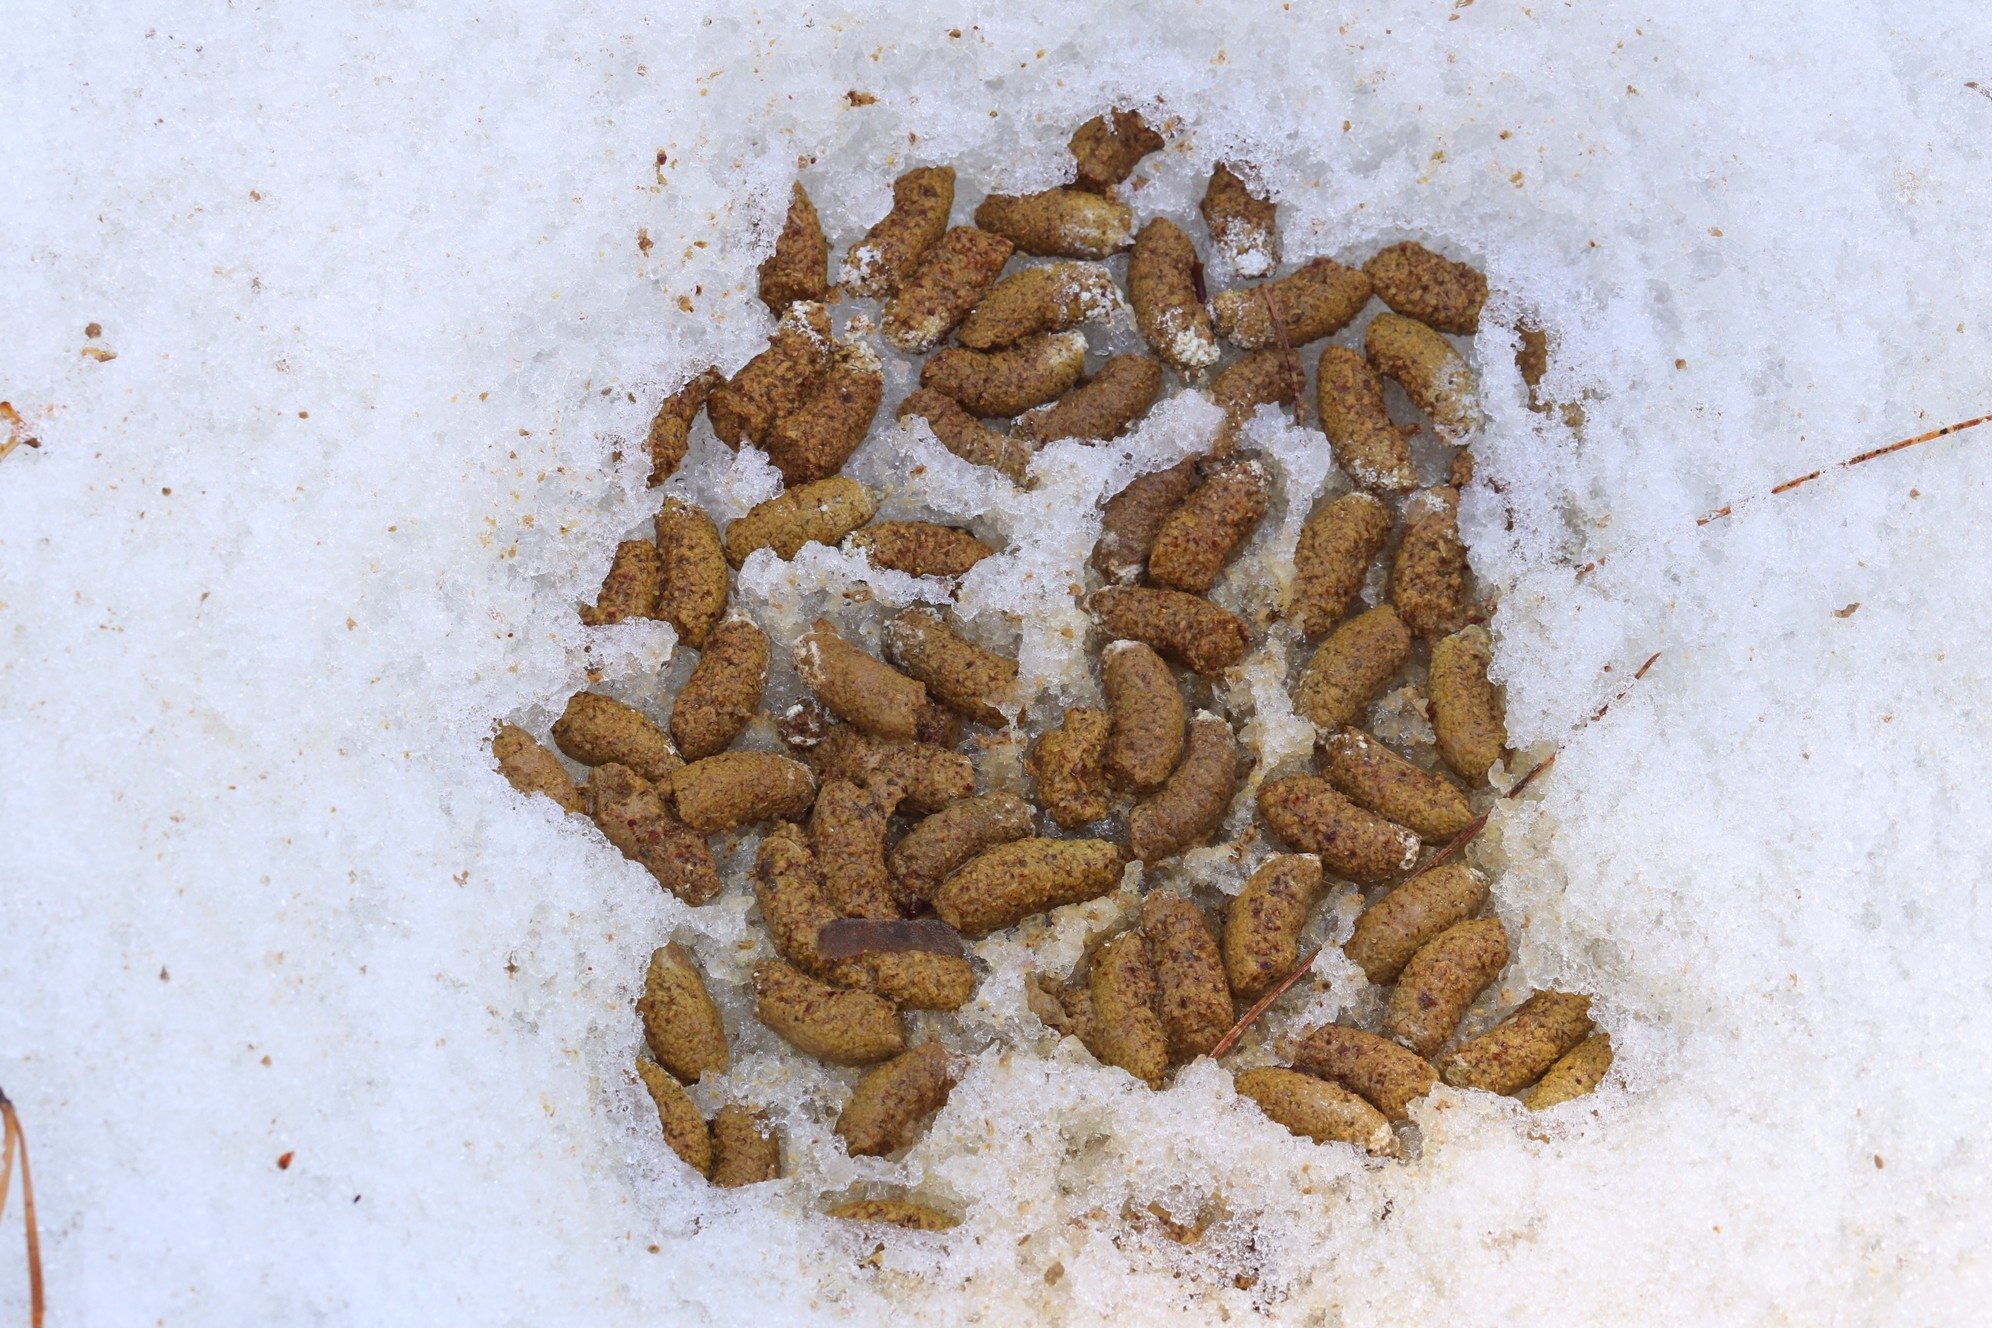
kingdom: Animalia
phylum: Chordata
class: Aves
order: Galliformes
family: Phasianidae
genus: Tetrastes
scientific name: Tetrastes bonasia
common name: Hazel grouse
